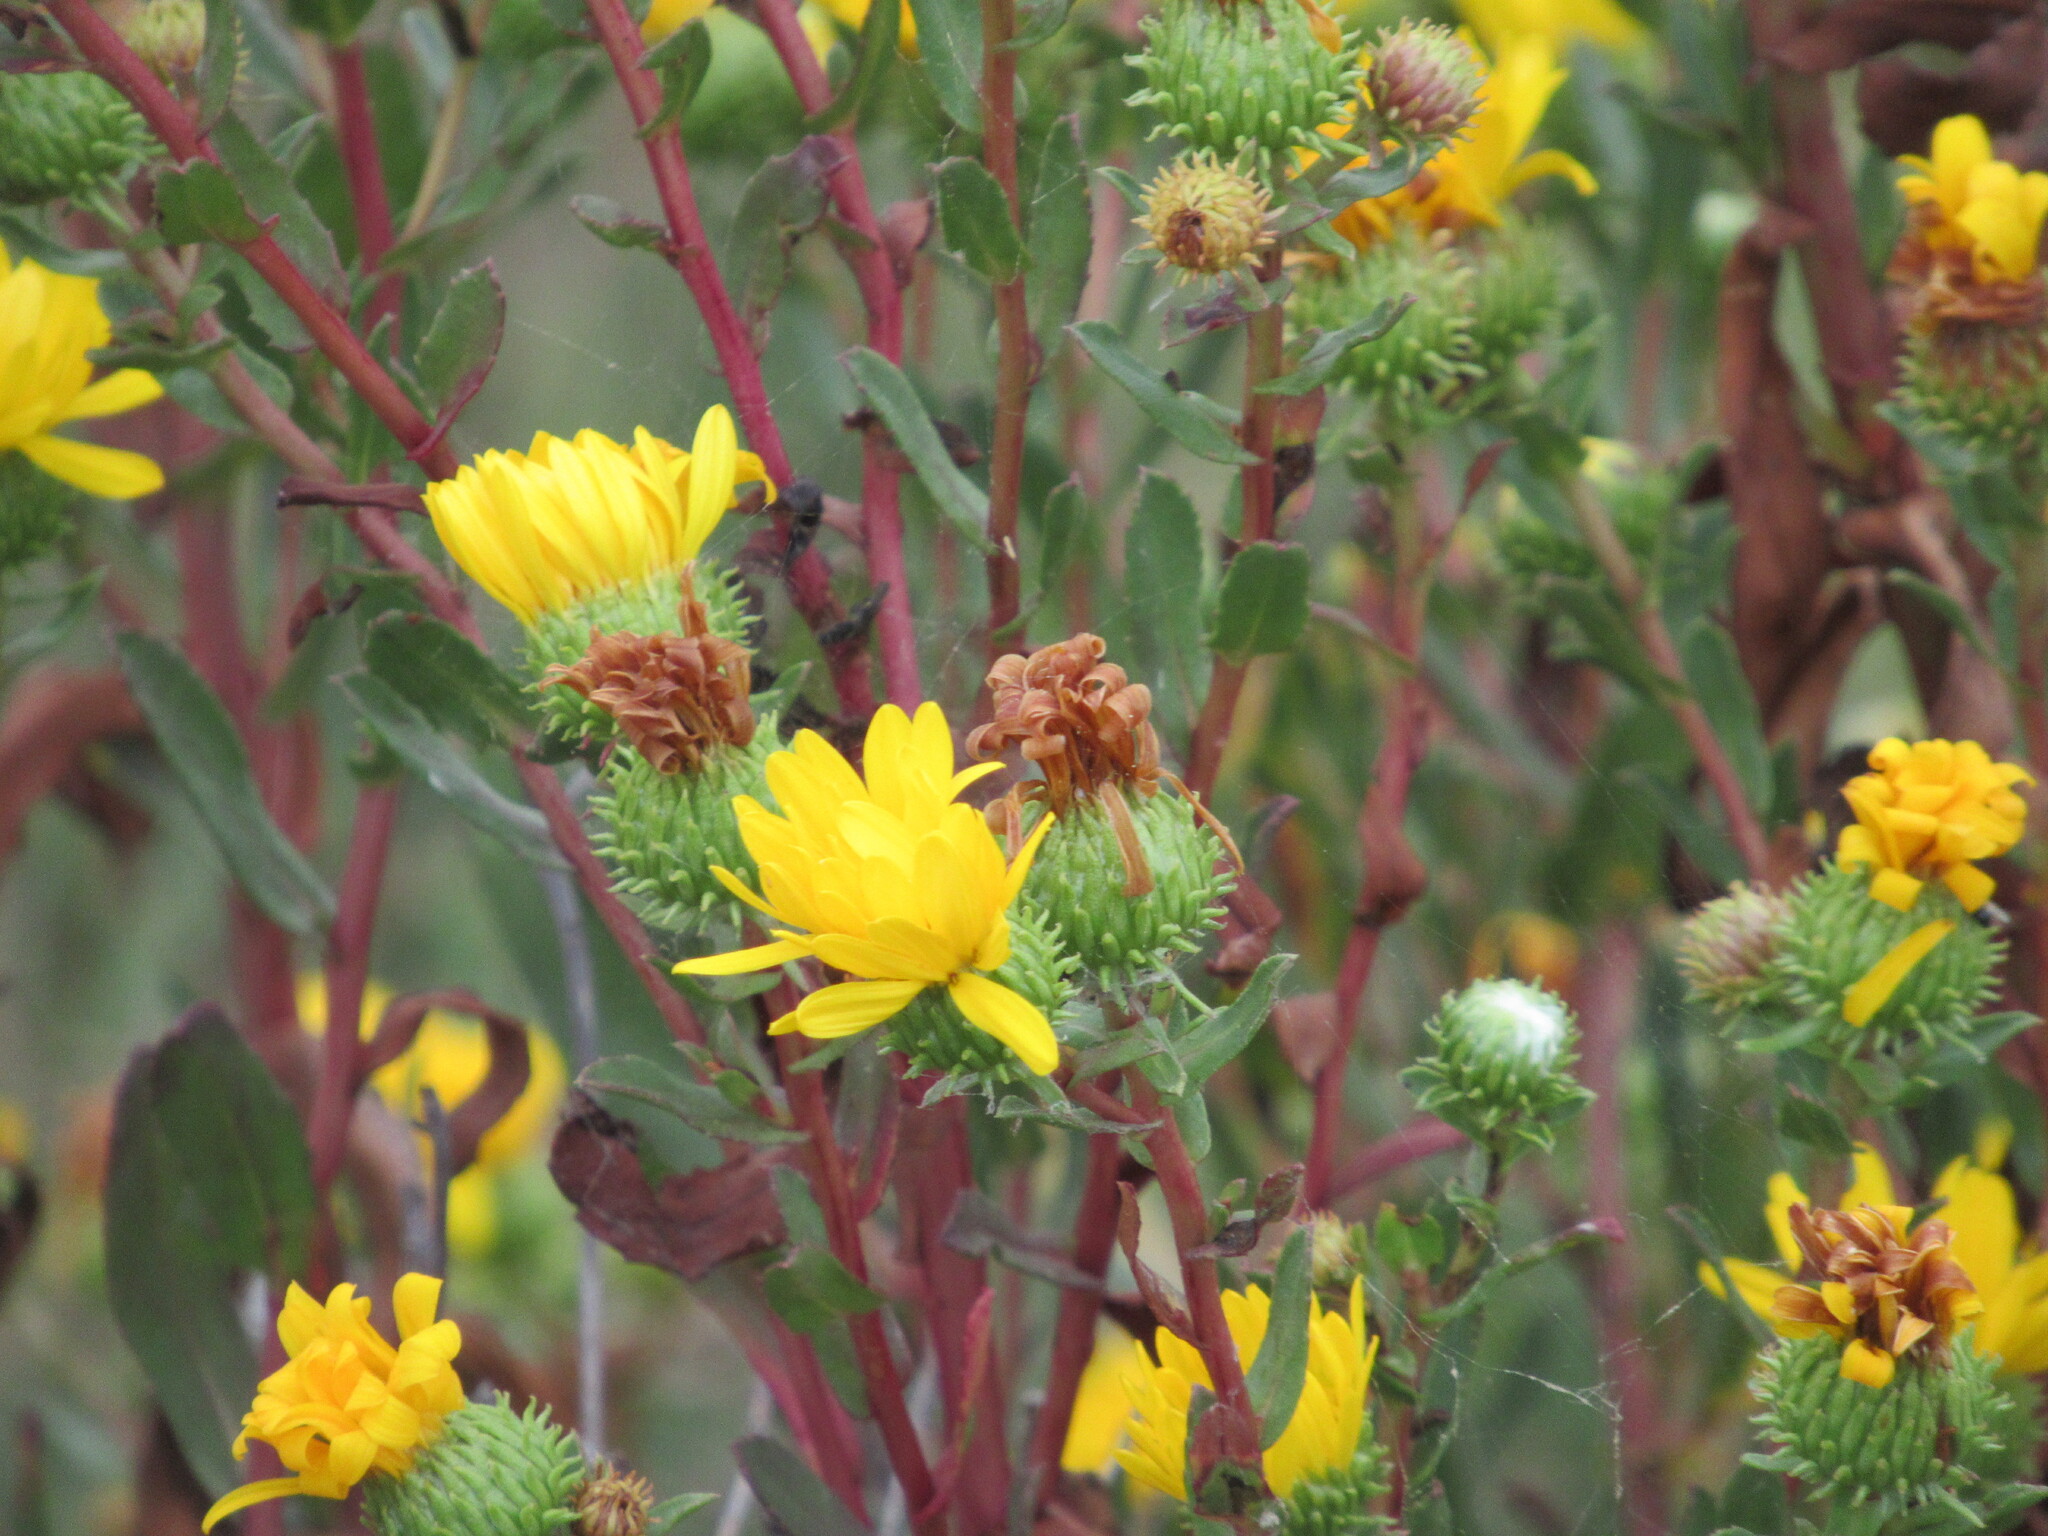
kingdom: Plantae
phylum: Tracheophyta
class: Magnoliopsida
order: Asterales
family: Asteraceae
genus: Grindelia
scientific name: Grindelia hirsutula
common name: Hairy gumweed
